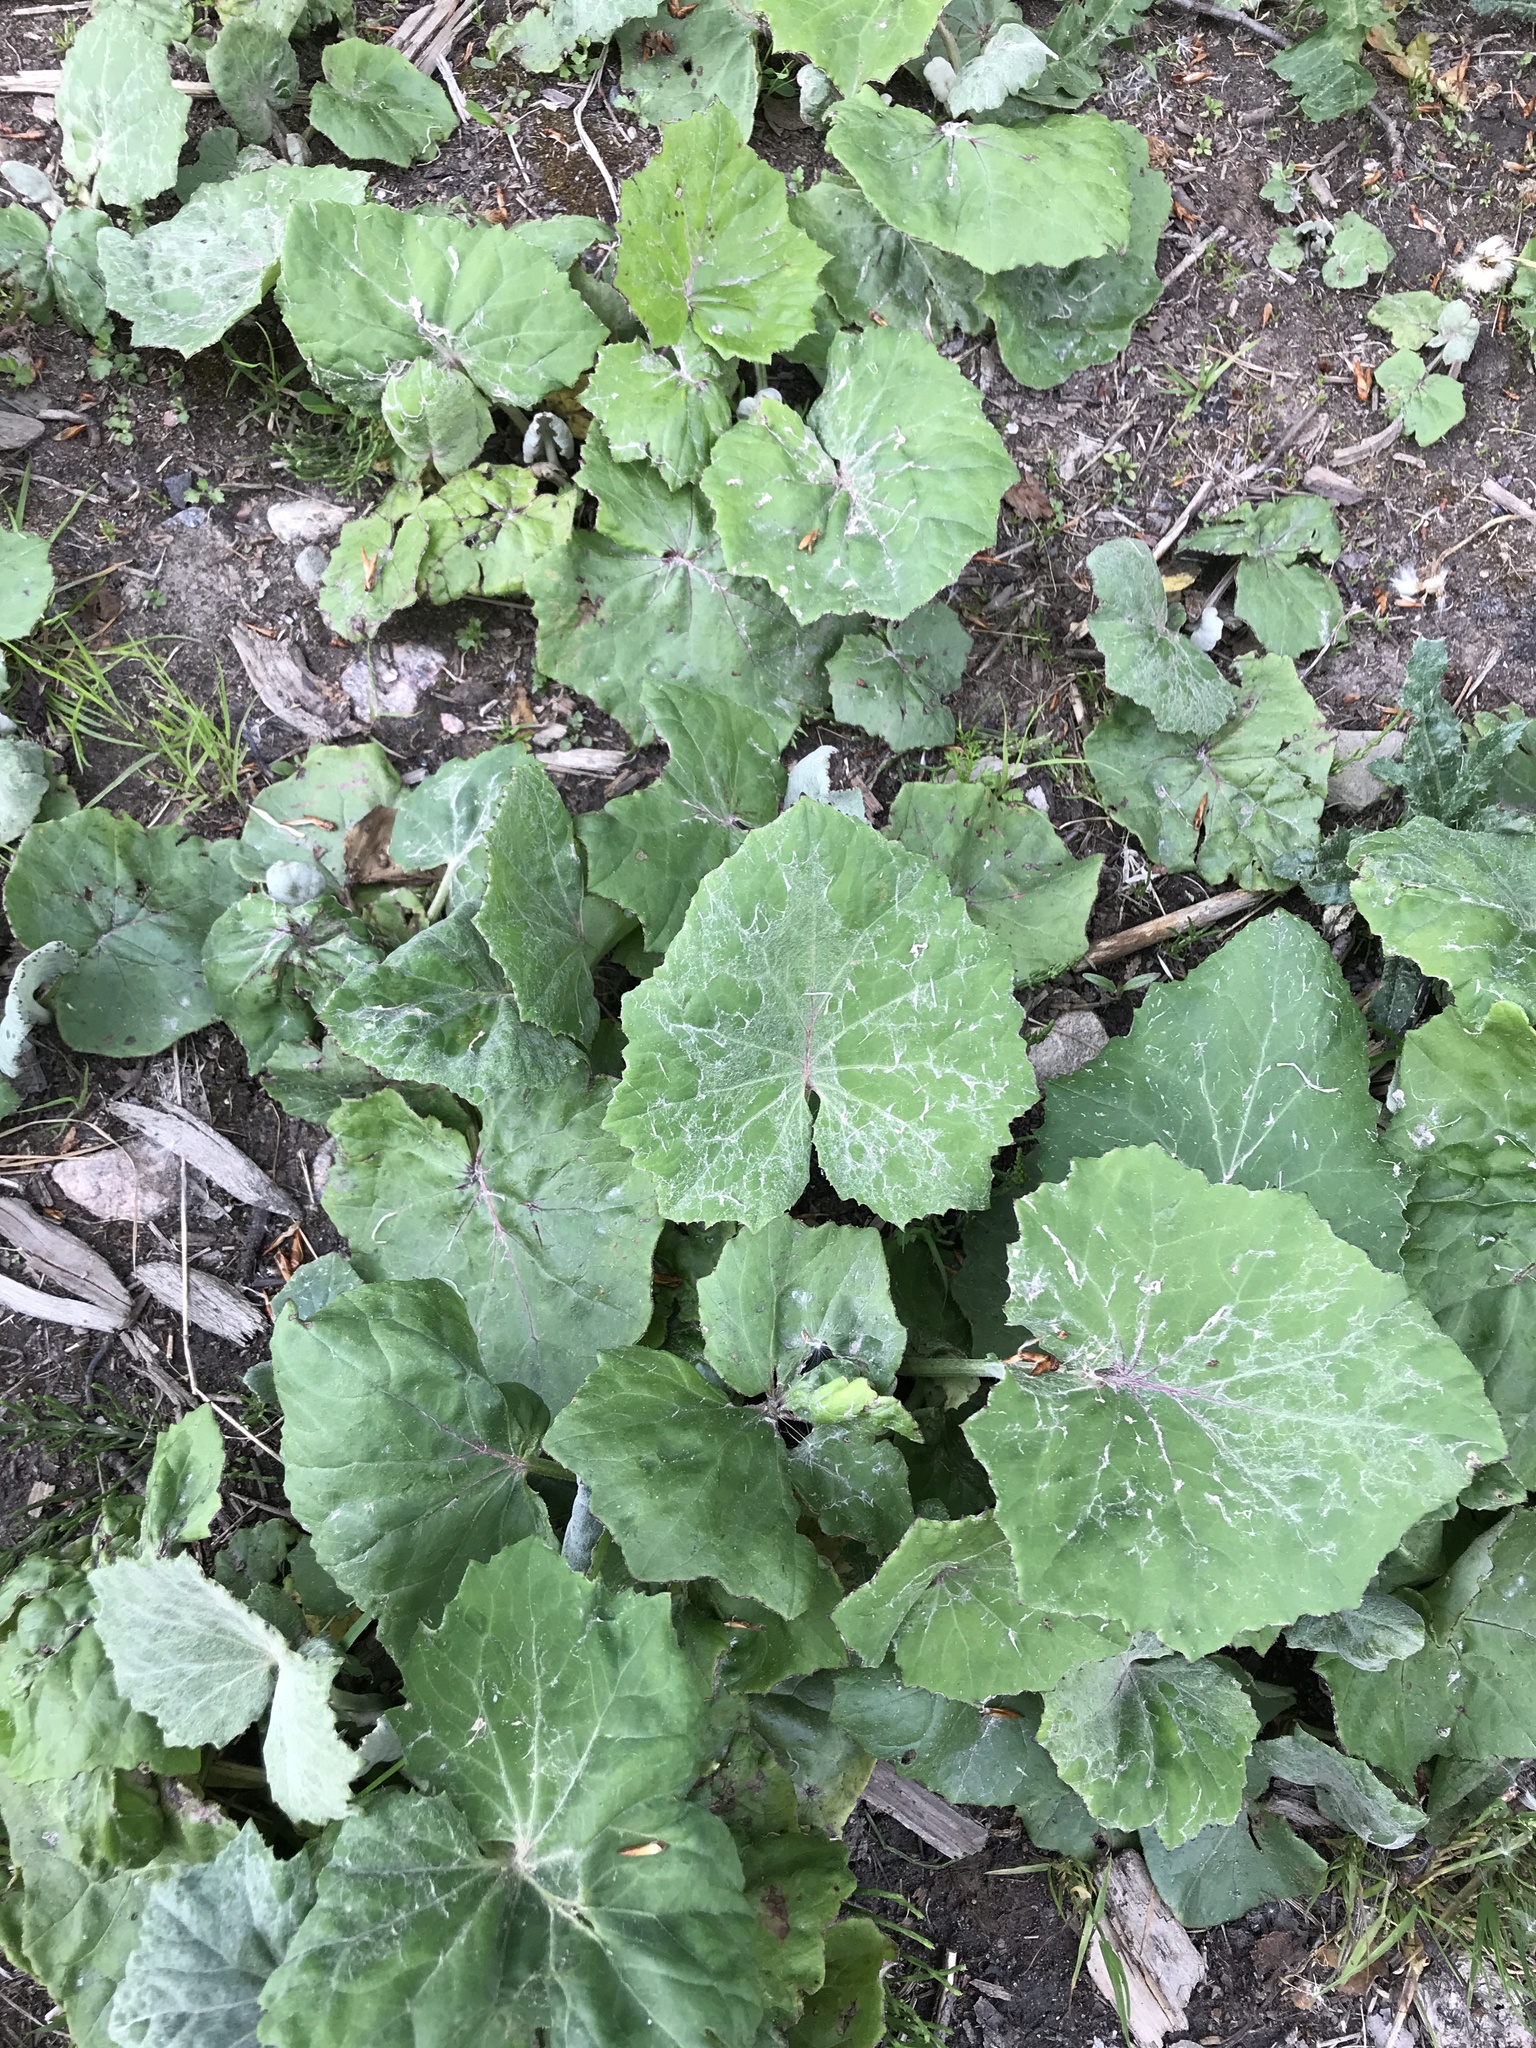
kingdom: Plantae
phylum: Tracheophyta
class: Magnoliopsida
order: Asterales
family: Asteraceae
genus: Tussilago
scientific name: Tussilago farfara
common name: Coltsfoot
